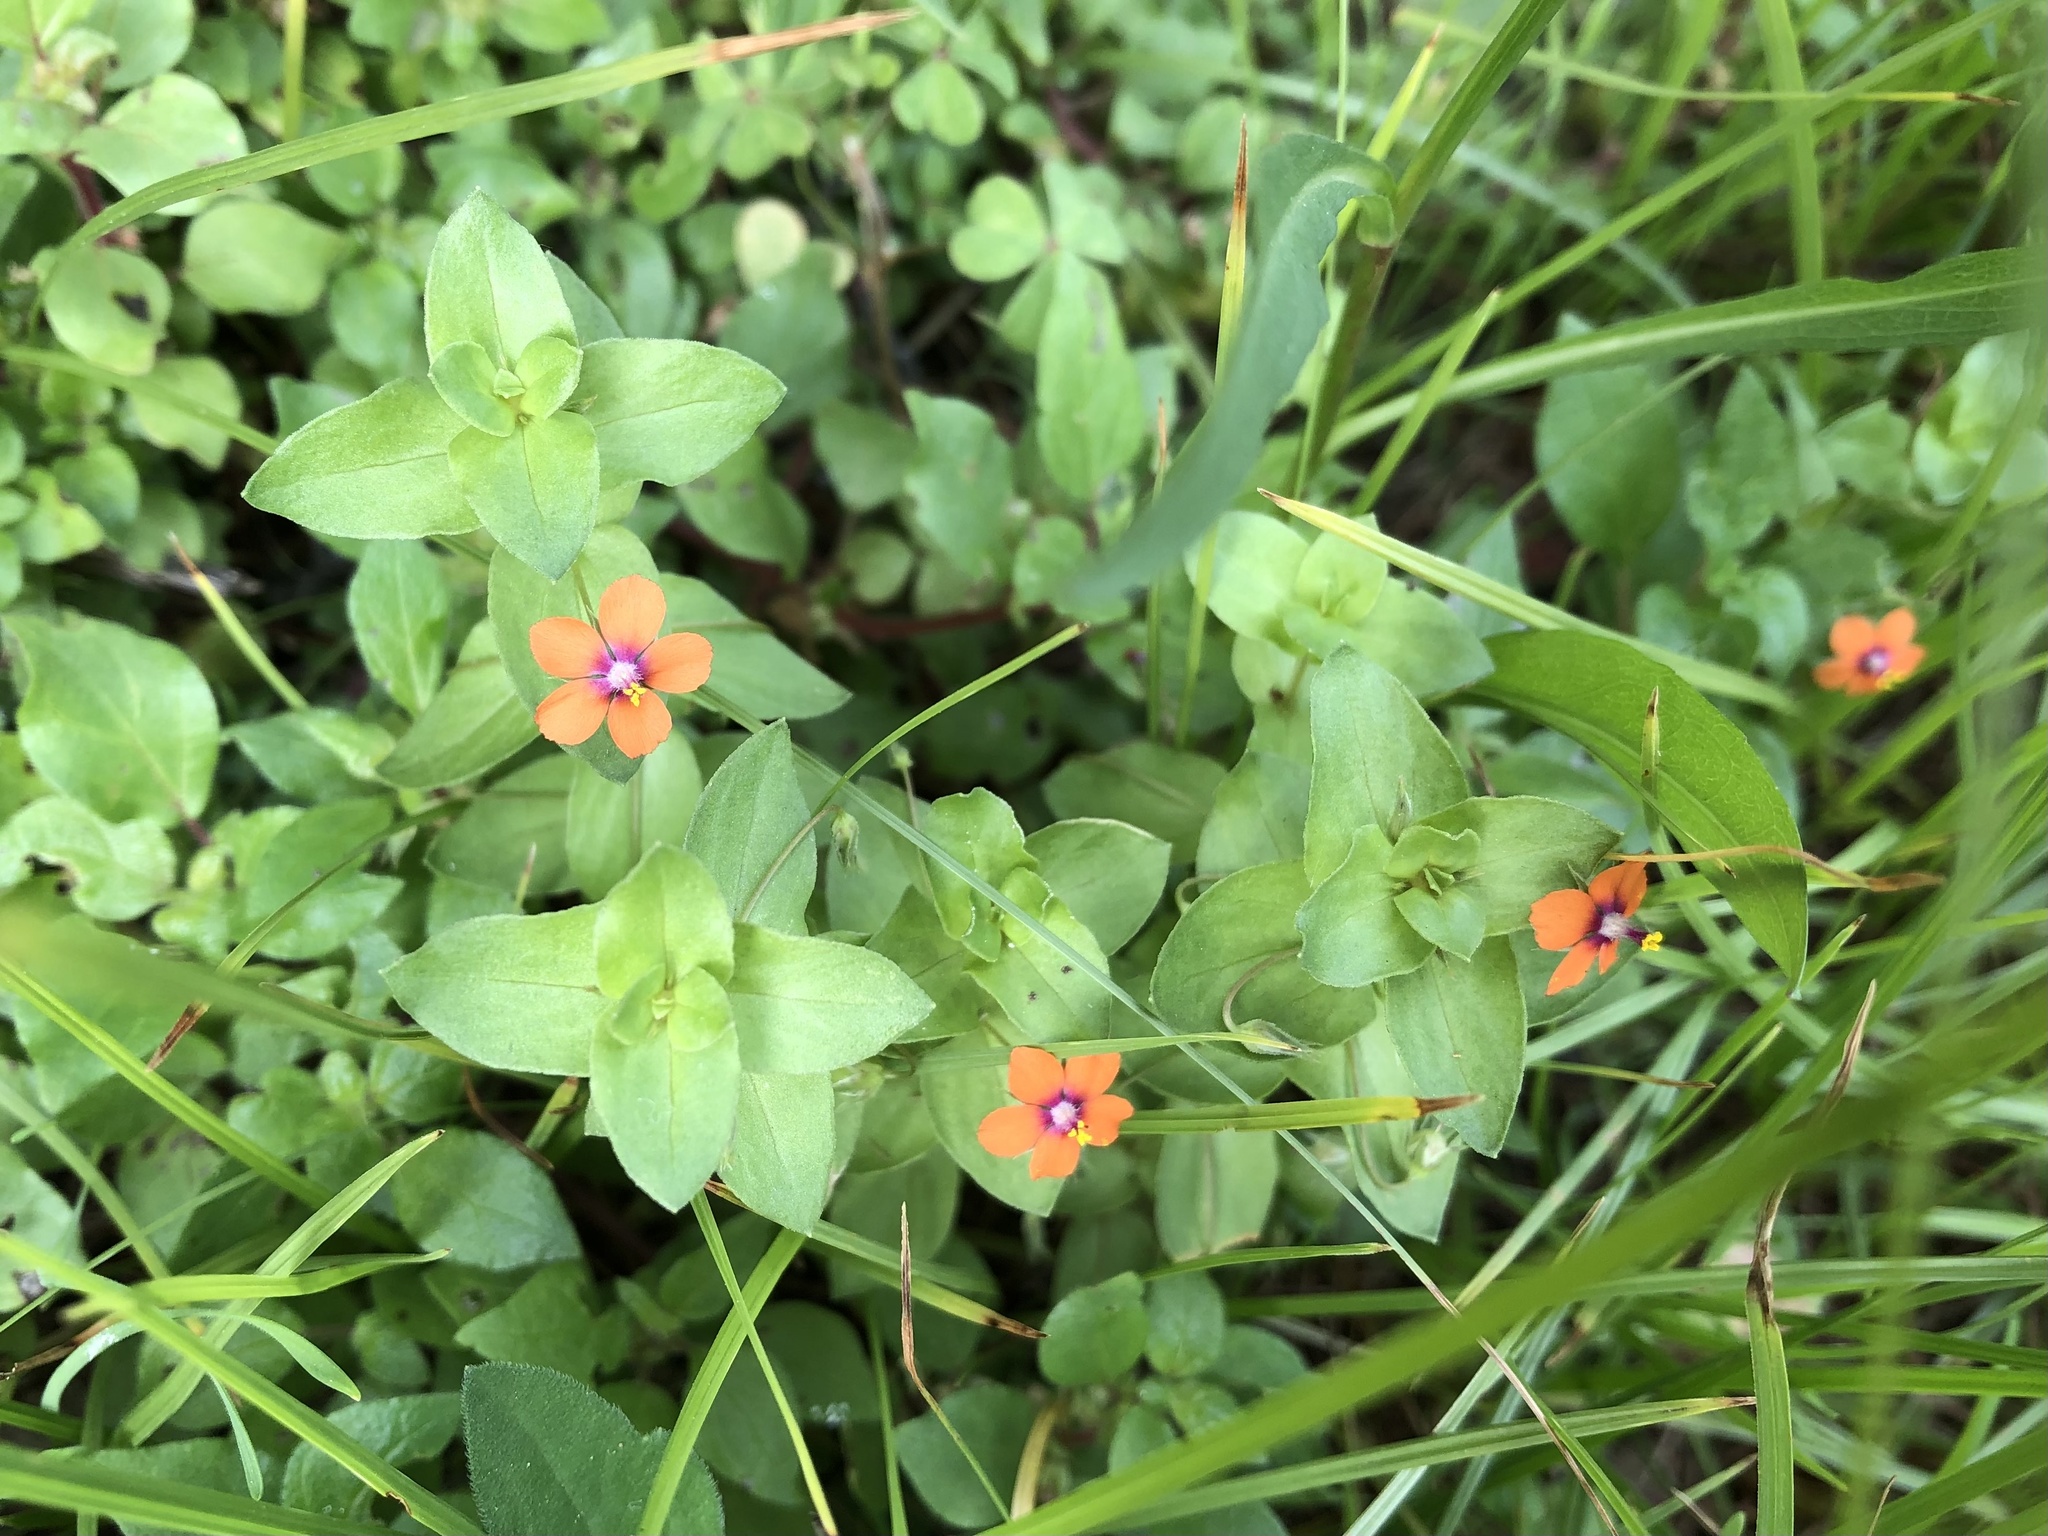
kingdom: Plantae
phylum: Tracheophyta
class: Magnoliopsida
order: Ericales
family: Primulaceae
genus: Lysimachia
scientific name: Lysimachia arvensis
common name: Scarlet pimpernel
